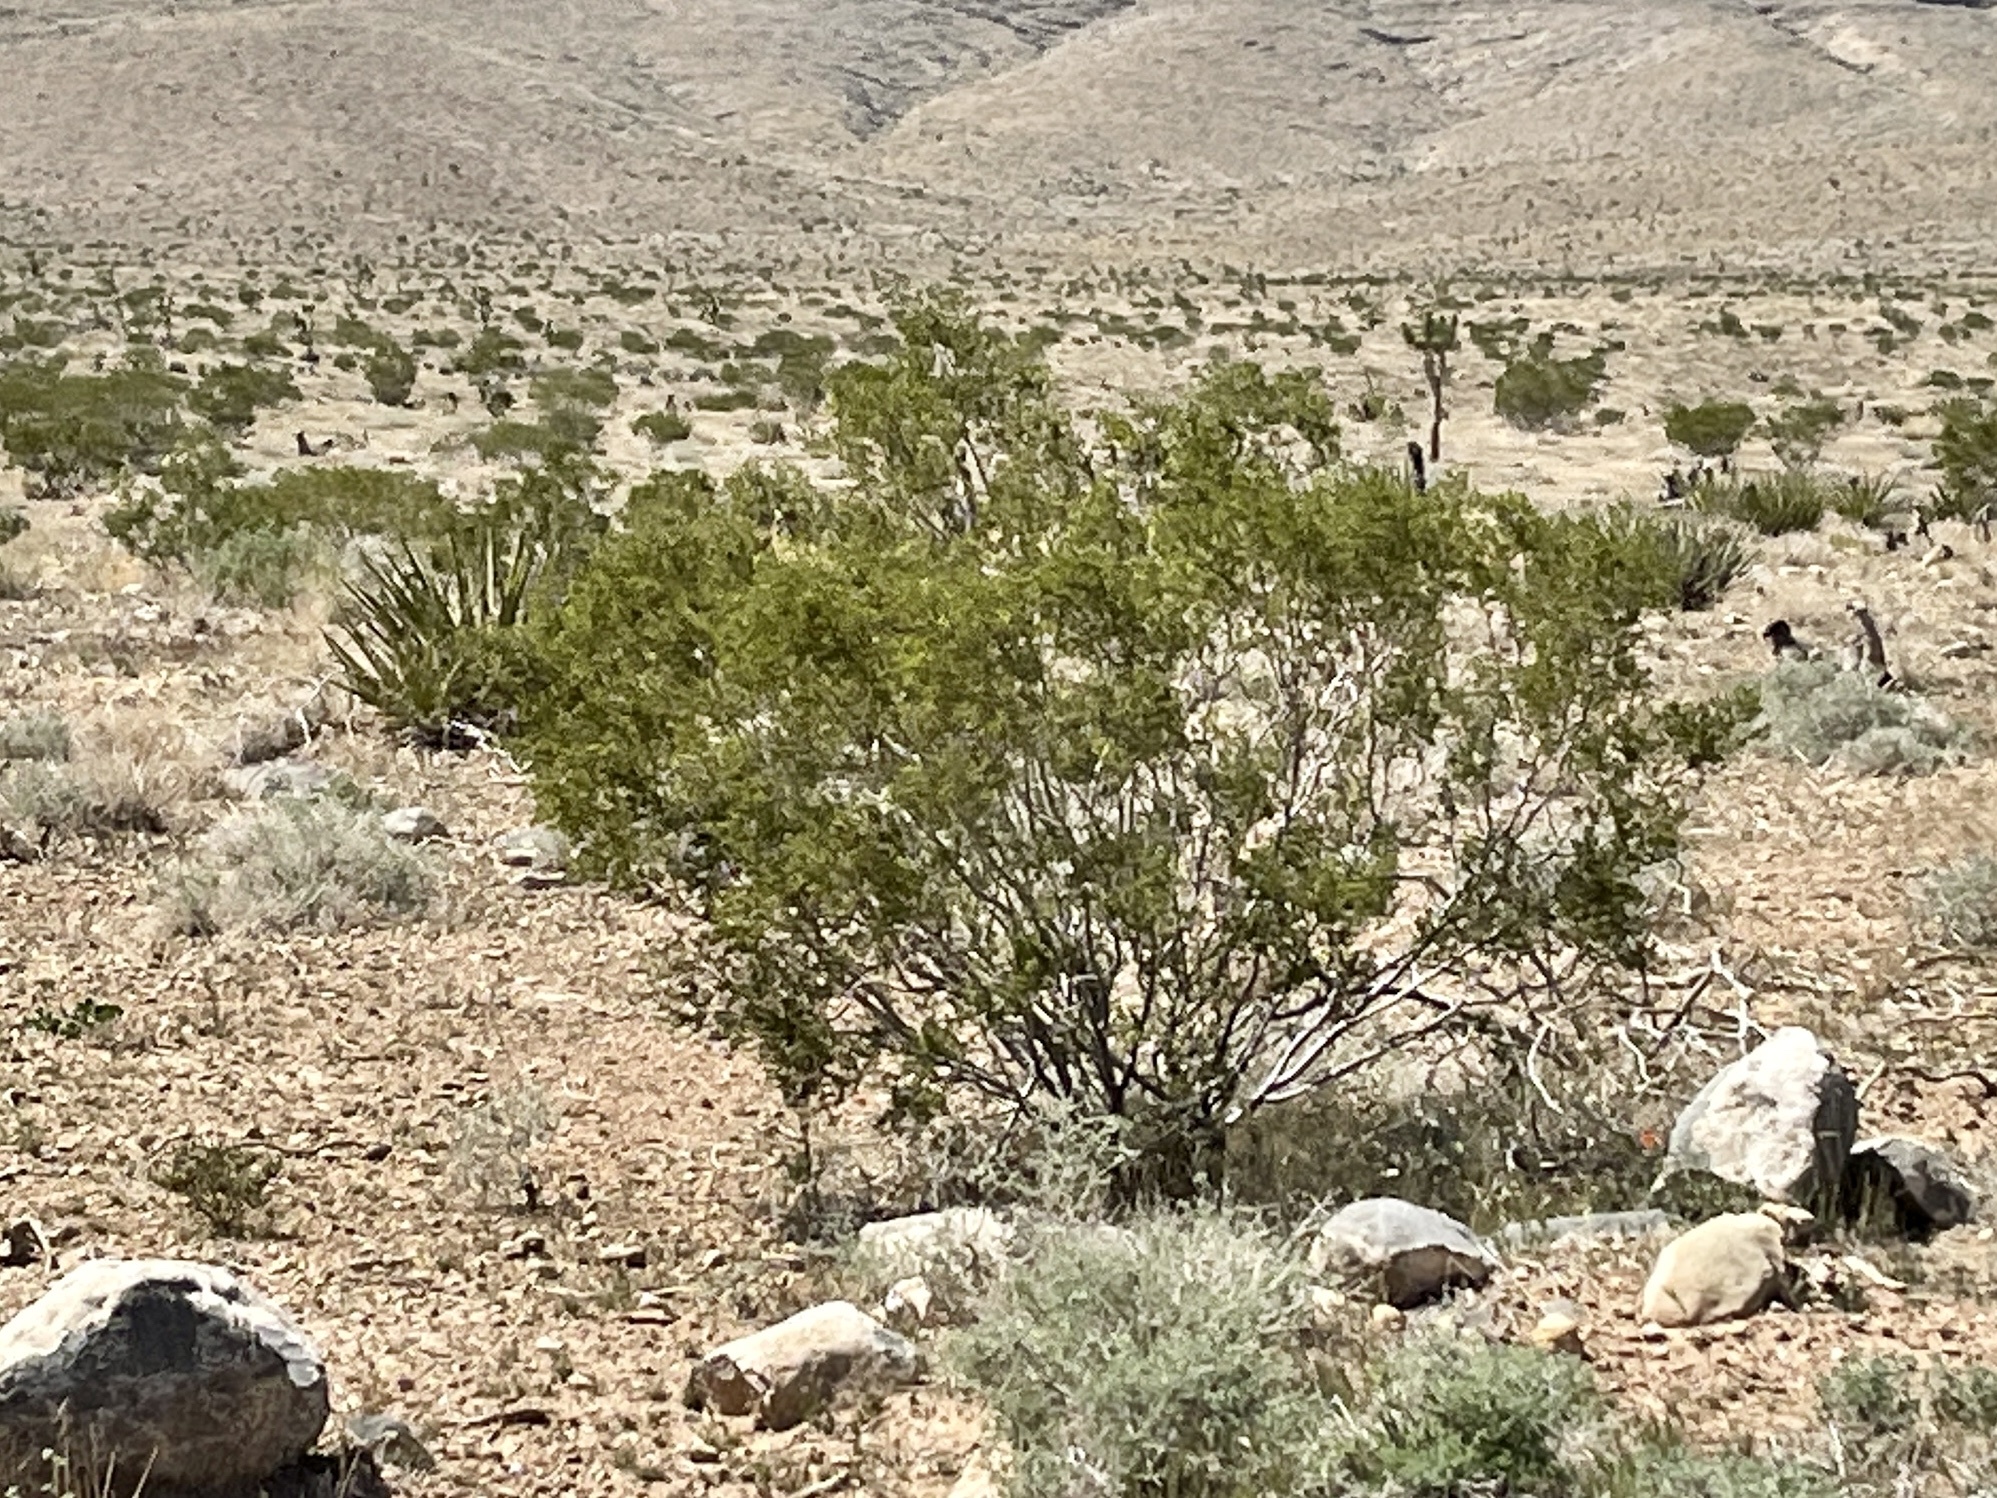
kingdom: Plantae
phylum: Tracheophyta
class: Magnoliopsida
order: Zygophyllales
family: Zygophyllaceae
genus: Larrea
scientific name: Larrea tridentata
